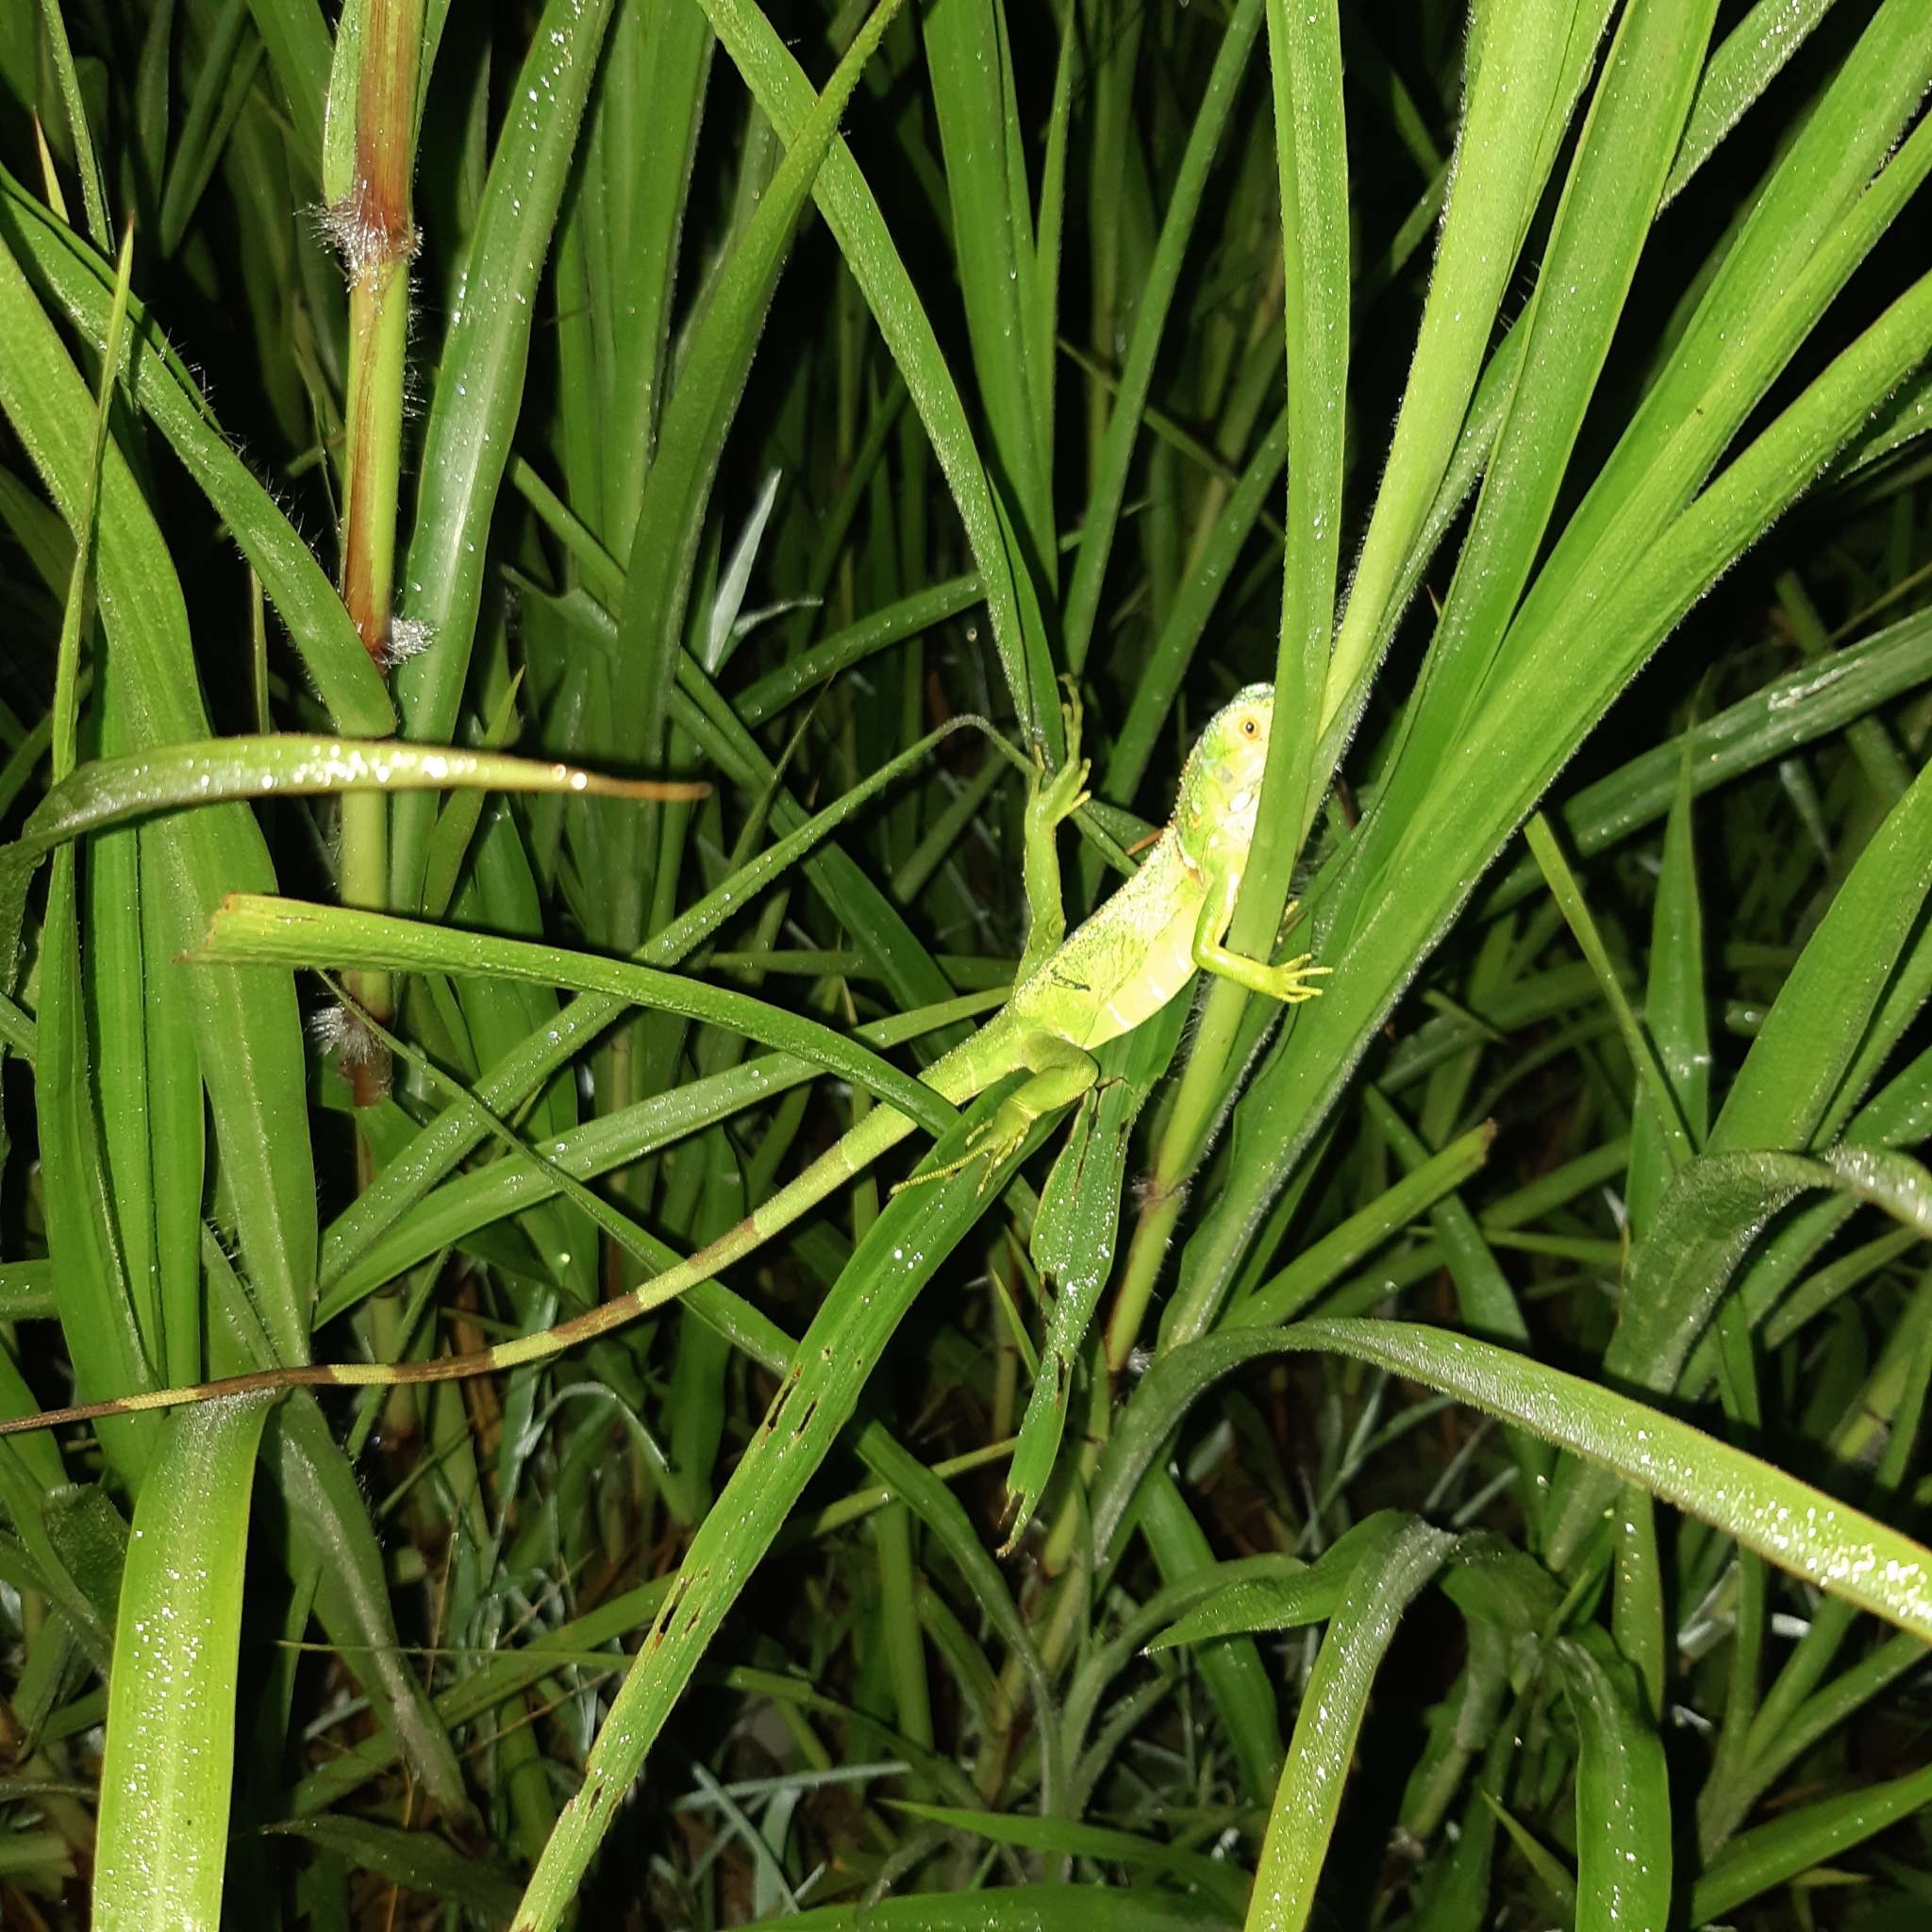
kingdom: Animalia
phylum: Chordata
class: Squamata
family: Iguanidae
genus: Iguana
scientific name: Iguana iguana
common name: Green iguana
